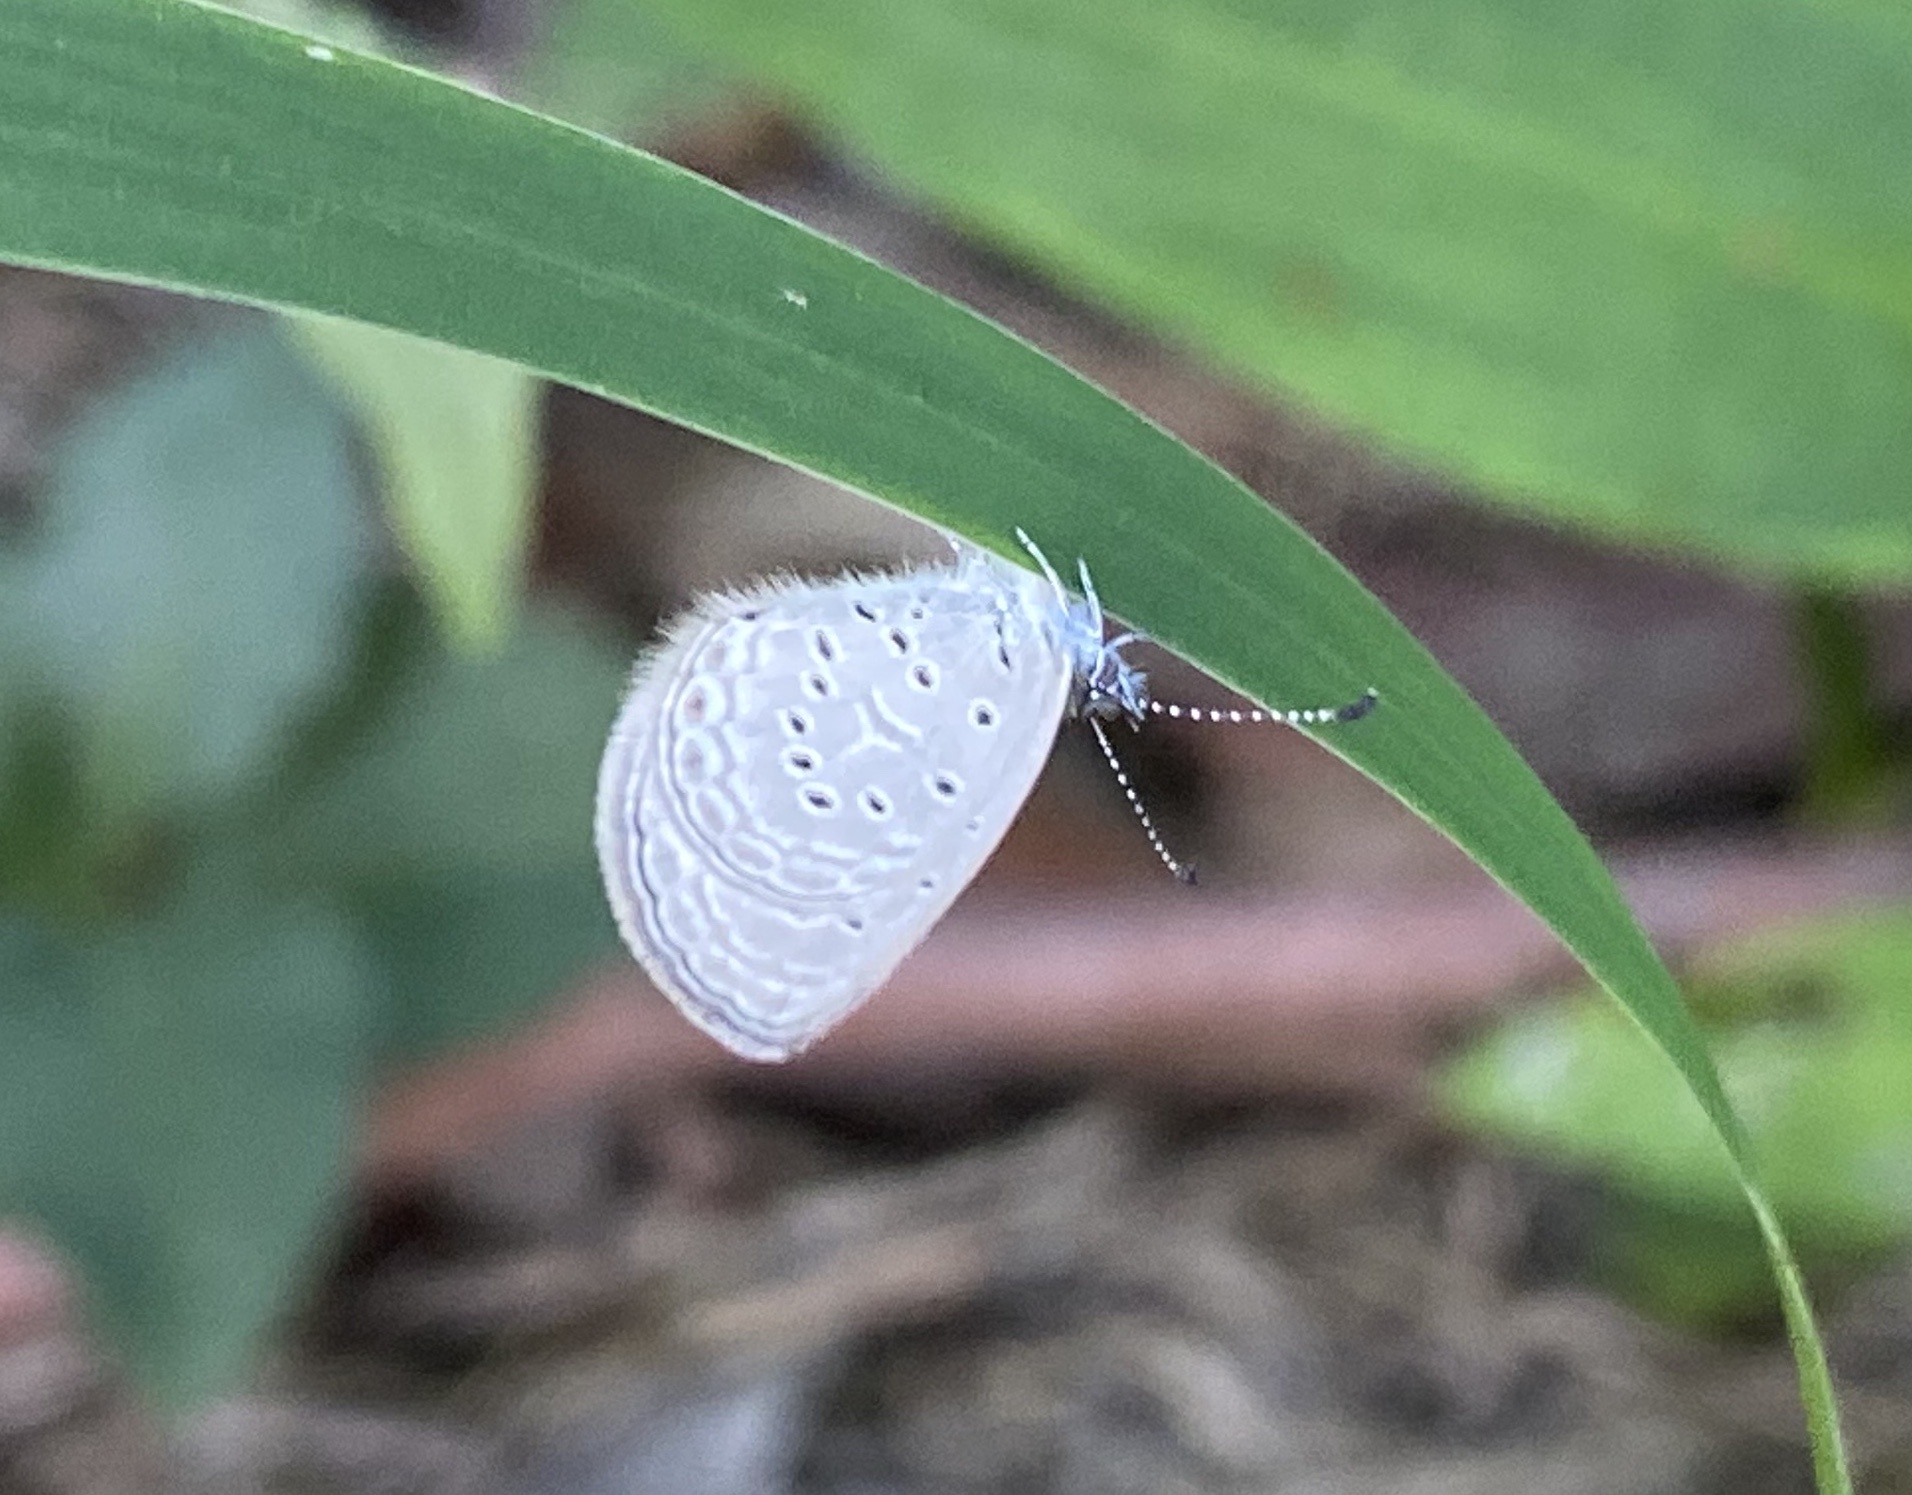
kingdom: Animalia
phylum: Arthropoda
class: Insecta
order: Lepidoptera
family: Lycaenidae
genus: Zizula
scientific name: Zizula hylax
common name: Gaika blue
